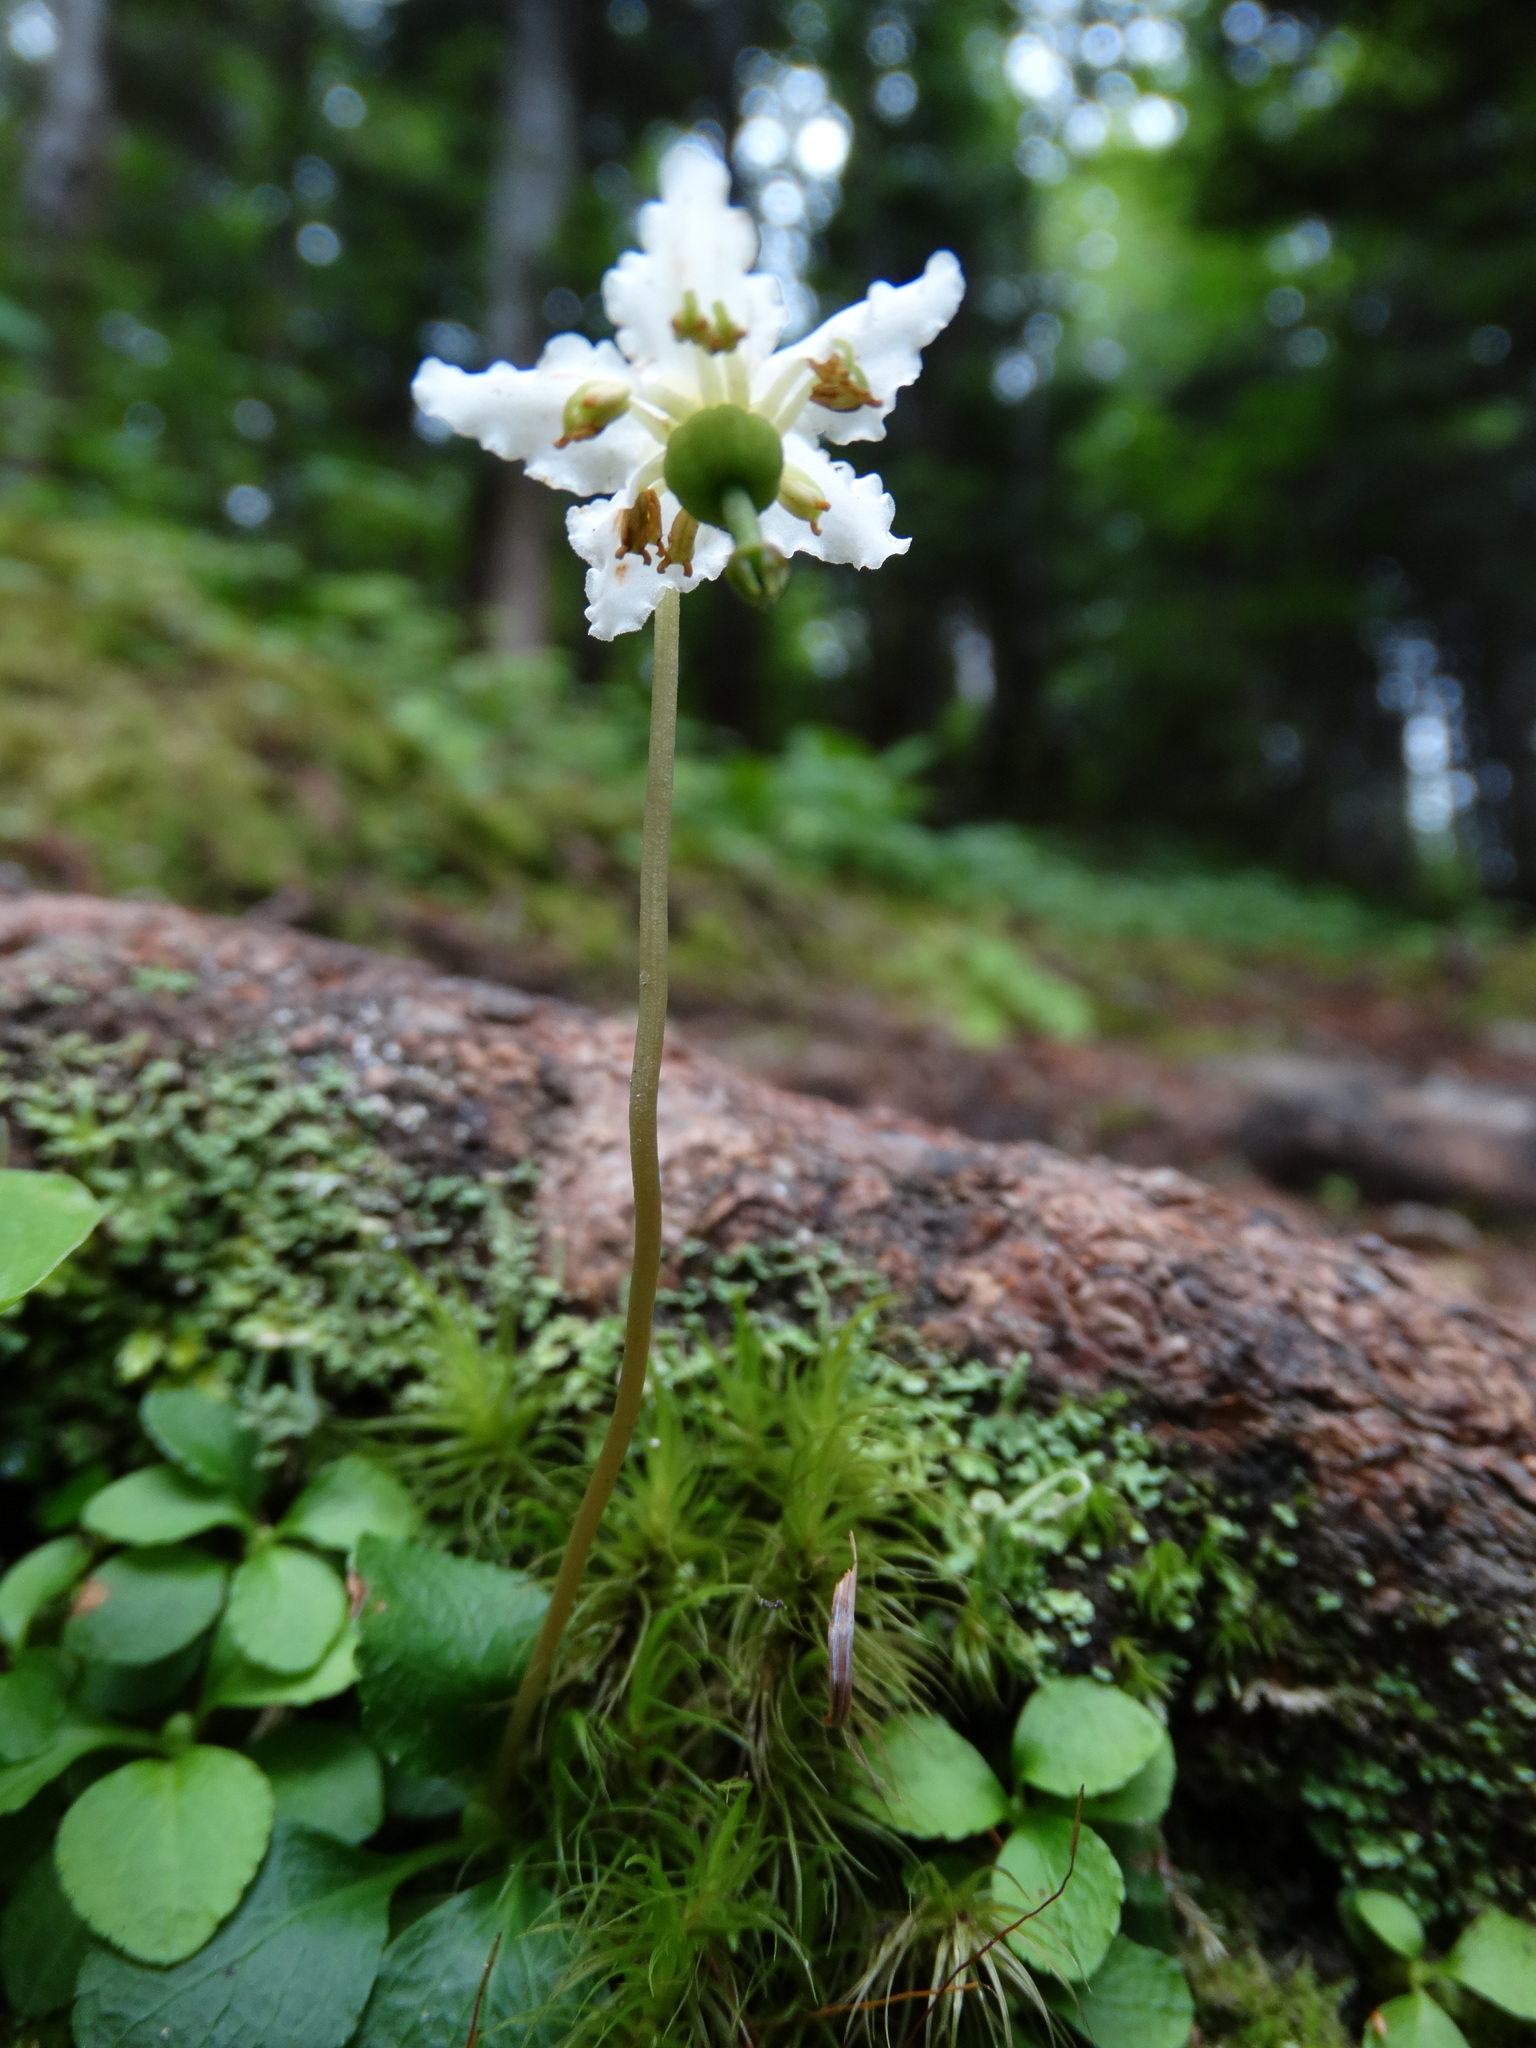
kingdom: Plantae
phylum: Tracheophyta
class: Magnoliopsida
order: Ericales
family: Ericaceae
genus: Moneses
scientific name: Moneses uniflora
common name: One-flowered wintergreen
